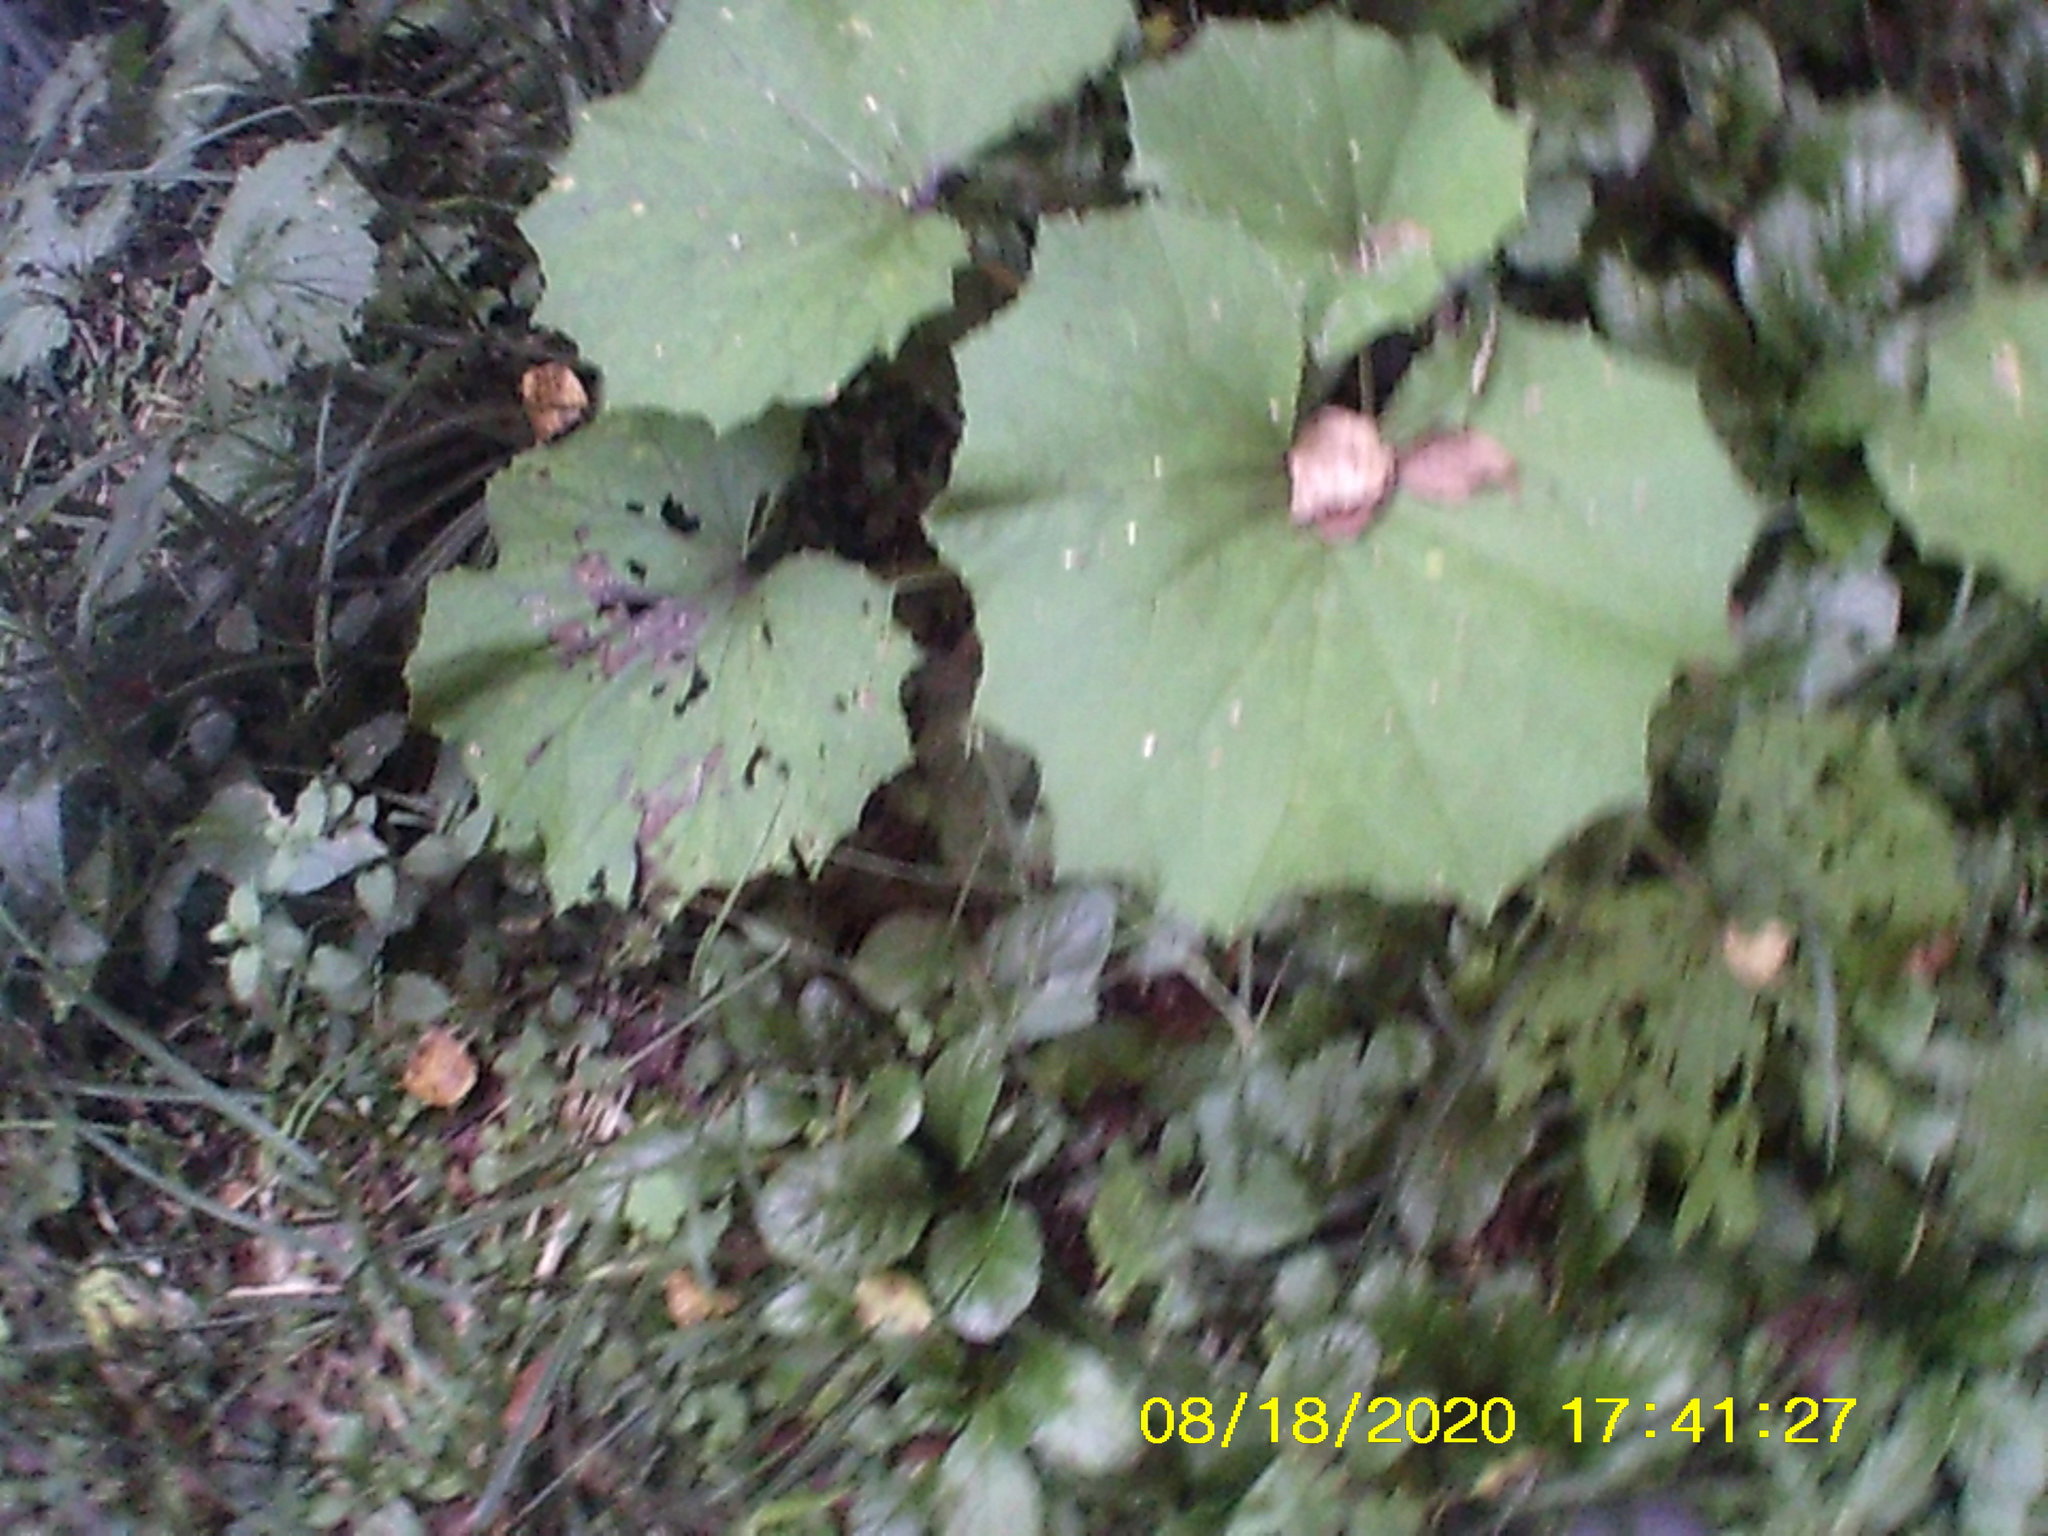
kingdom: Plantae
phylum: Tracheophyta
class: Magnoliopsida
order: Asterales
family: Asteraceae
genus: Tussilago
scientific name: Tussilago farfara
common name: Coltsfoot
